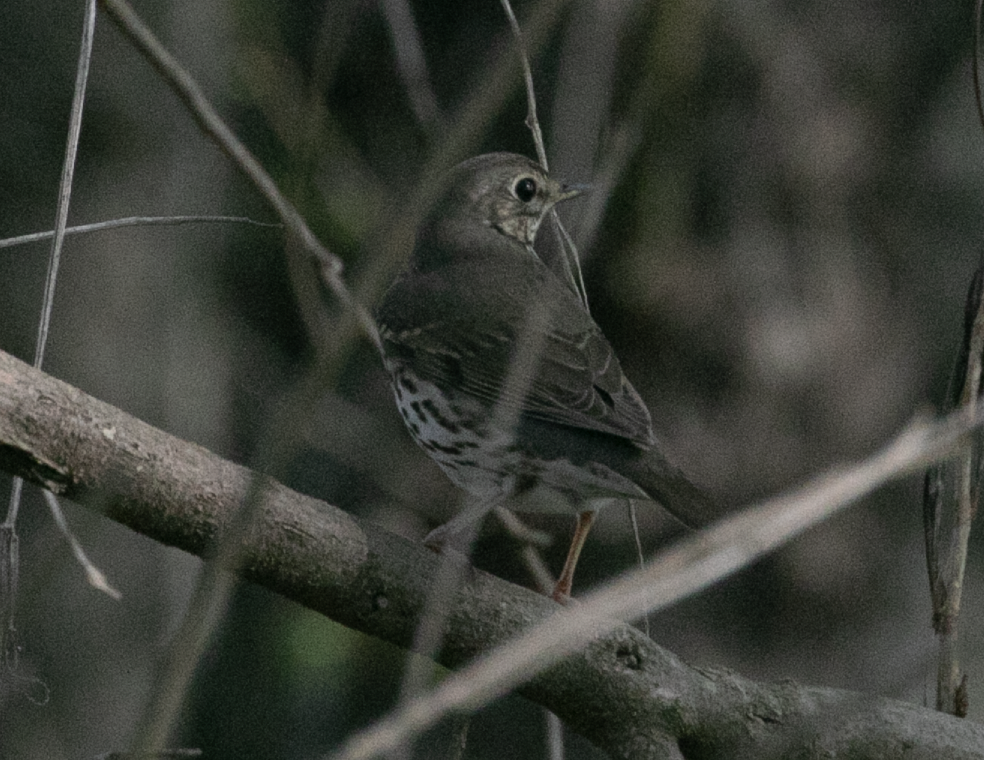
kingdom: Animalia
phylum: Chordata
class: Aves
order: Passeriformes
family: Turdidae
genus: Turdus
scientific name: Turdus philomelos
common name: Song thrush
